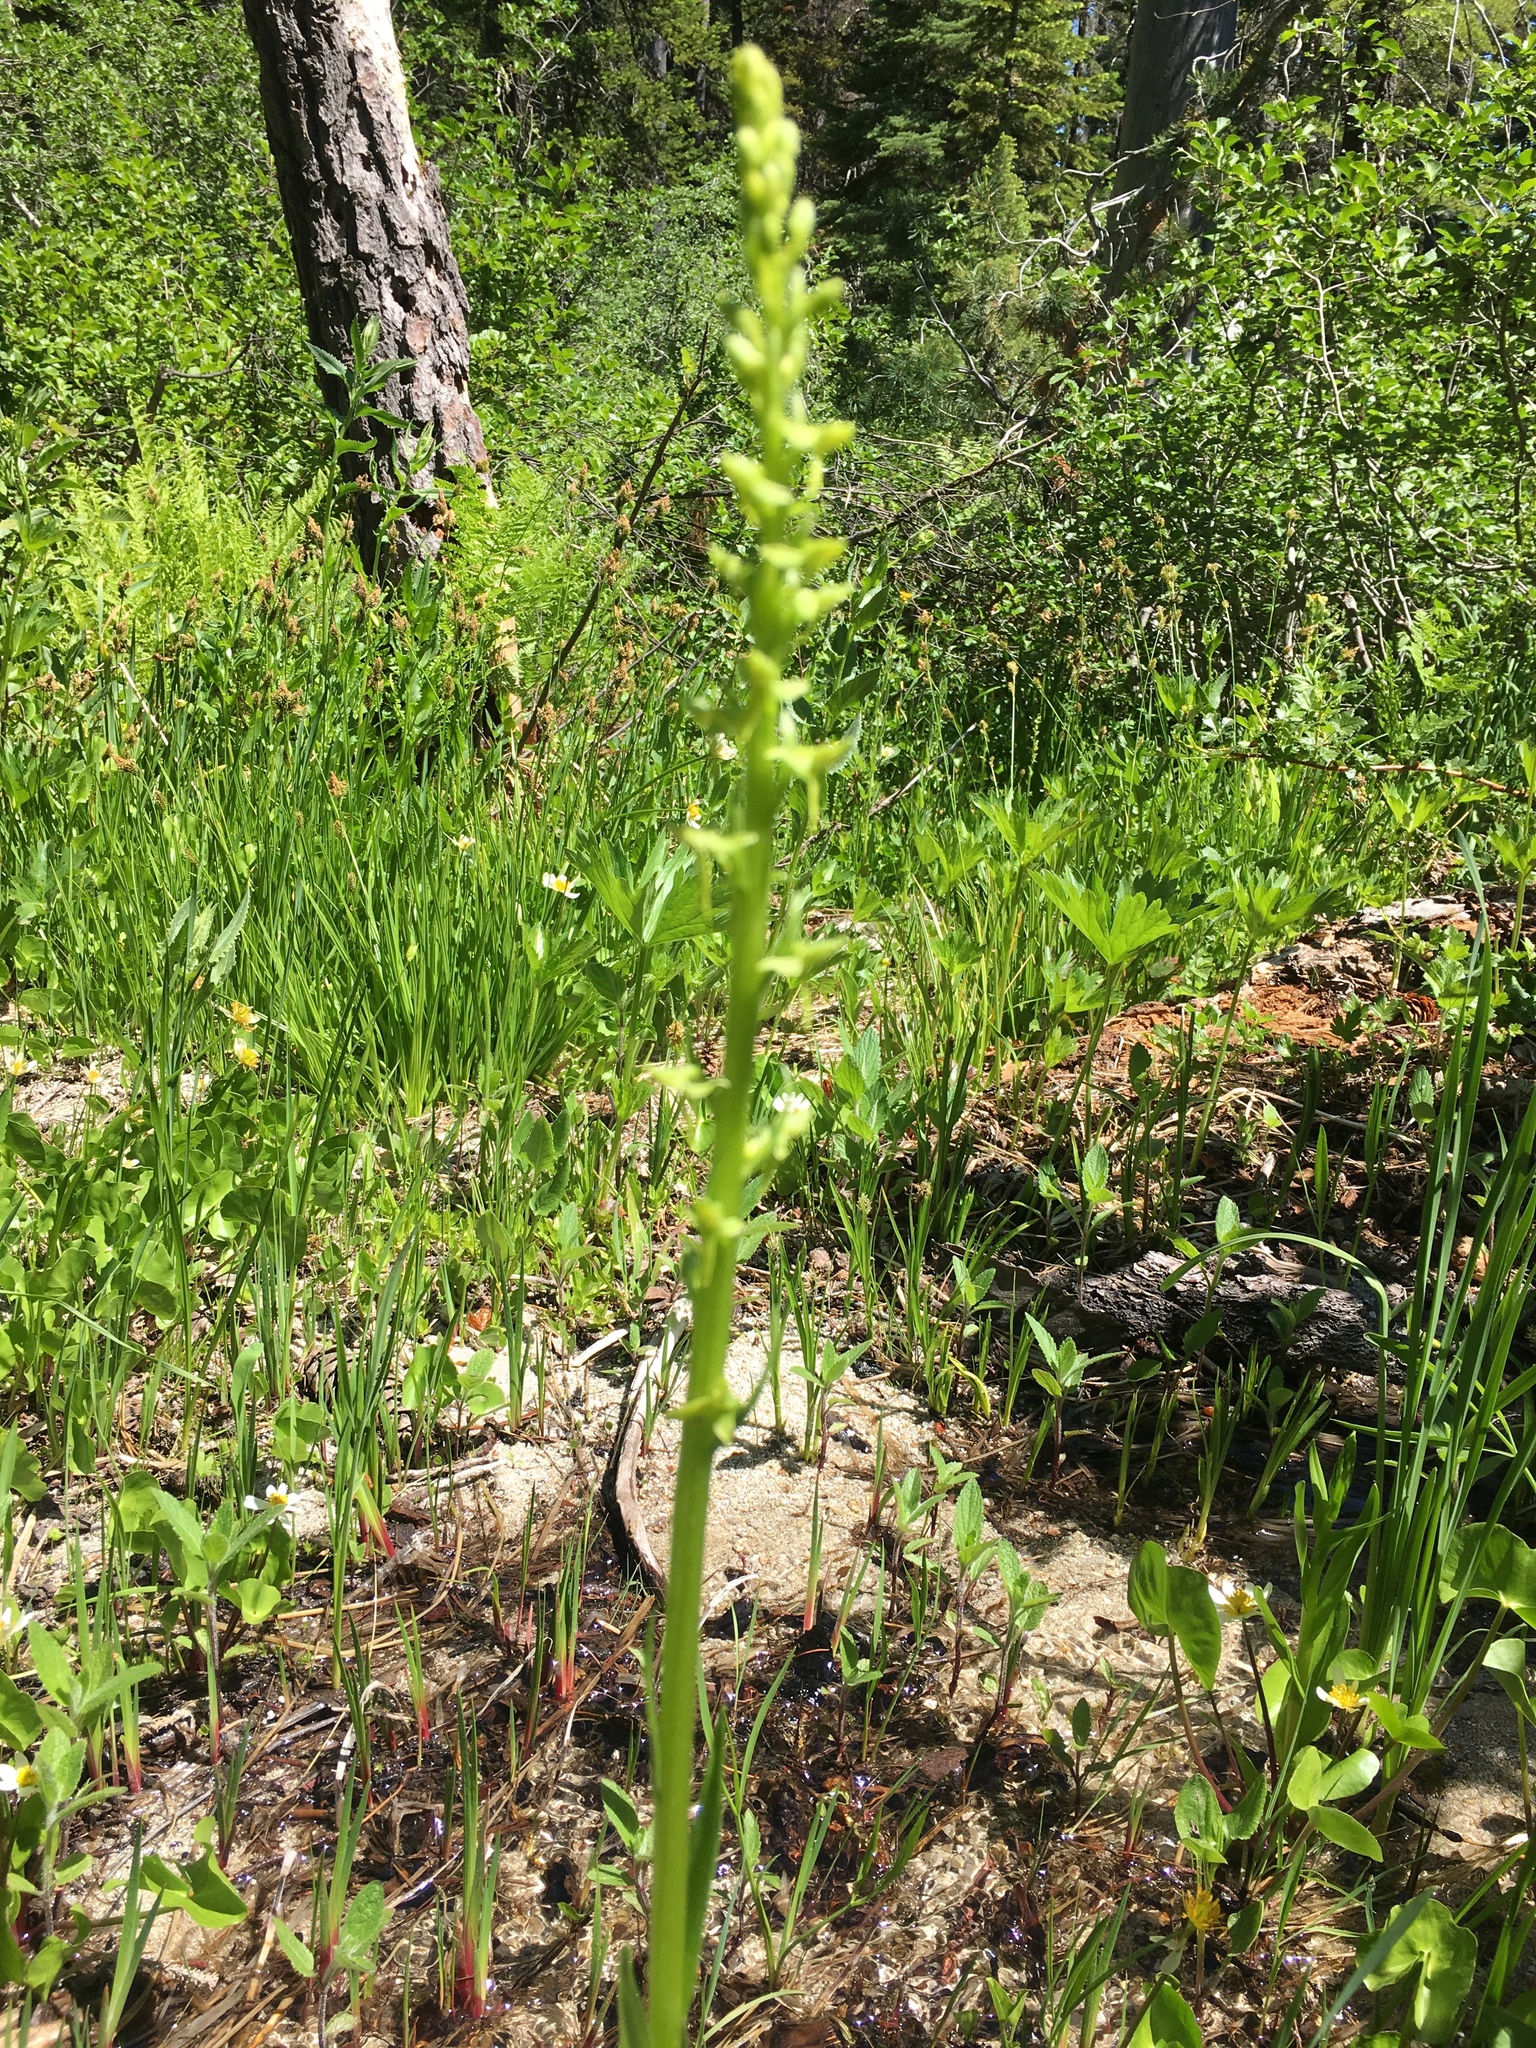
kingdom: Plantae
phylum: Tracheophyta
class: Liliopsida
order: Asparagales
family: Orchidaceae
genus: Platanthera
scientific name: Platanthera sparsiflora
